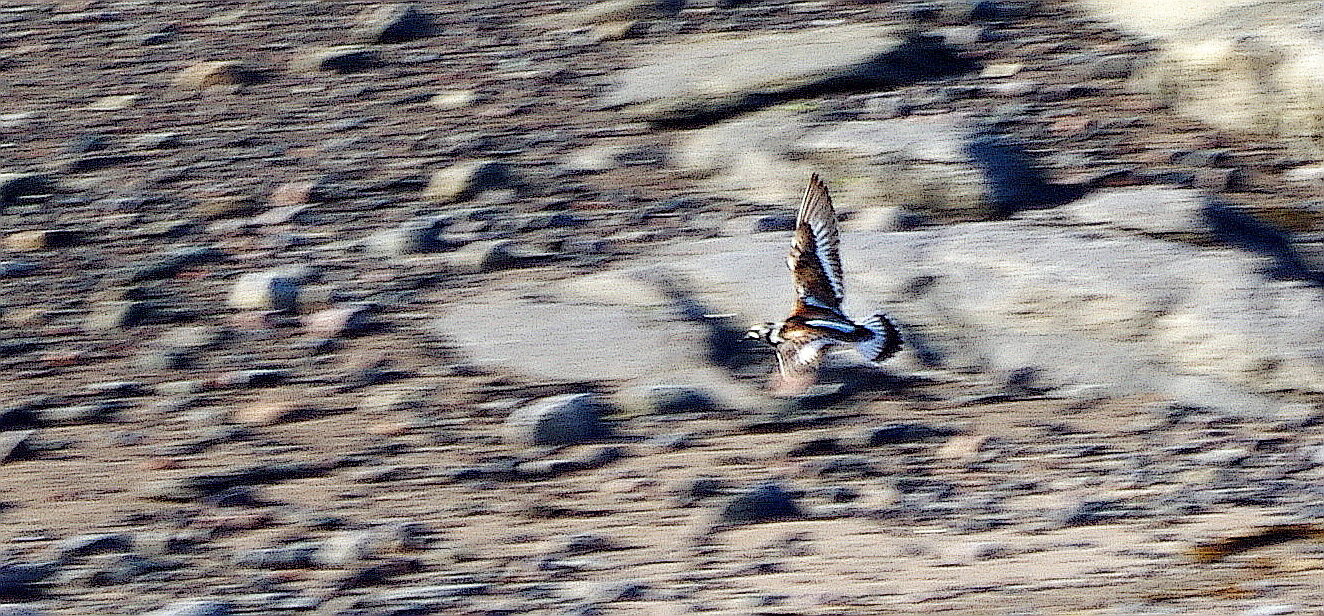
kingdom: Animalia
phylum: Chordata
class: Aves
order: Charadriiformes
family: Scolopacidae
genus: Arenaria
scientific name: Arenaria interpres
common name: Ruddy turnstone
